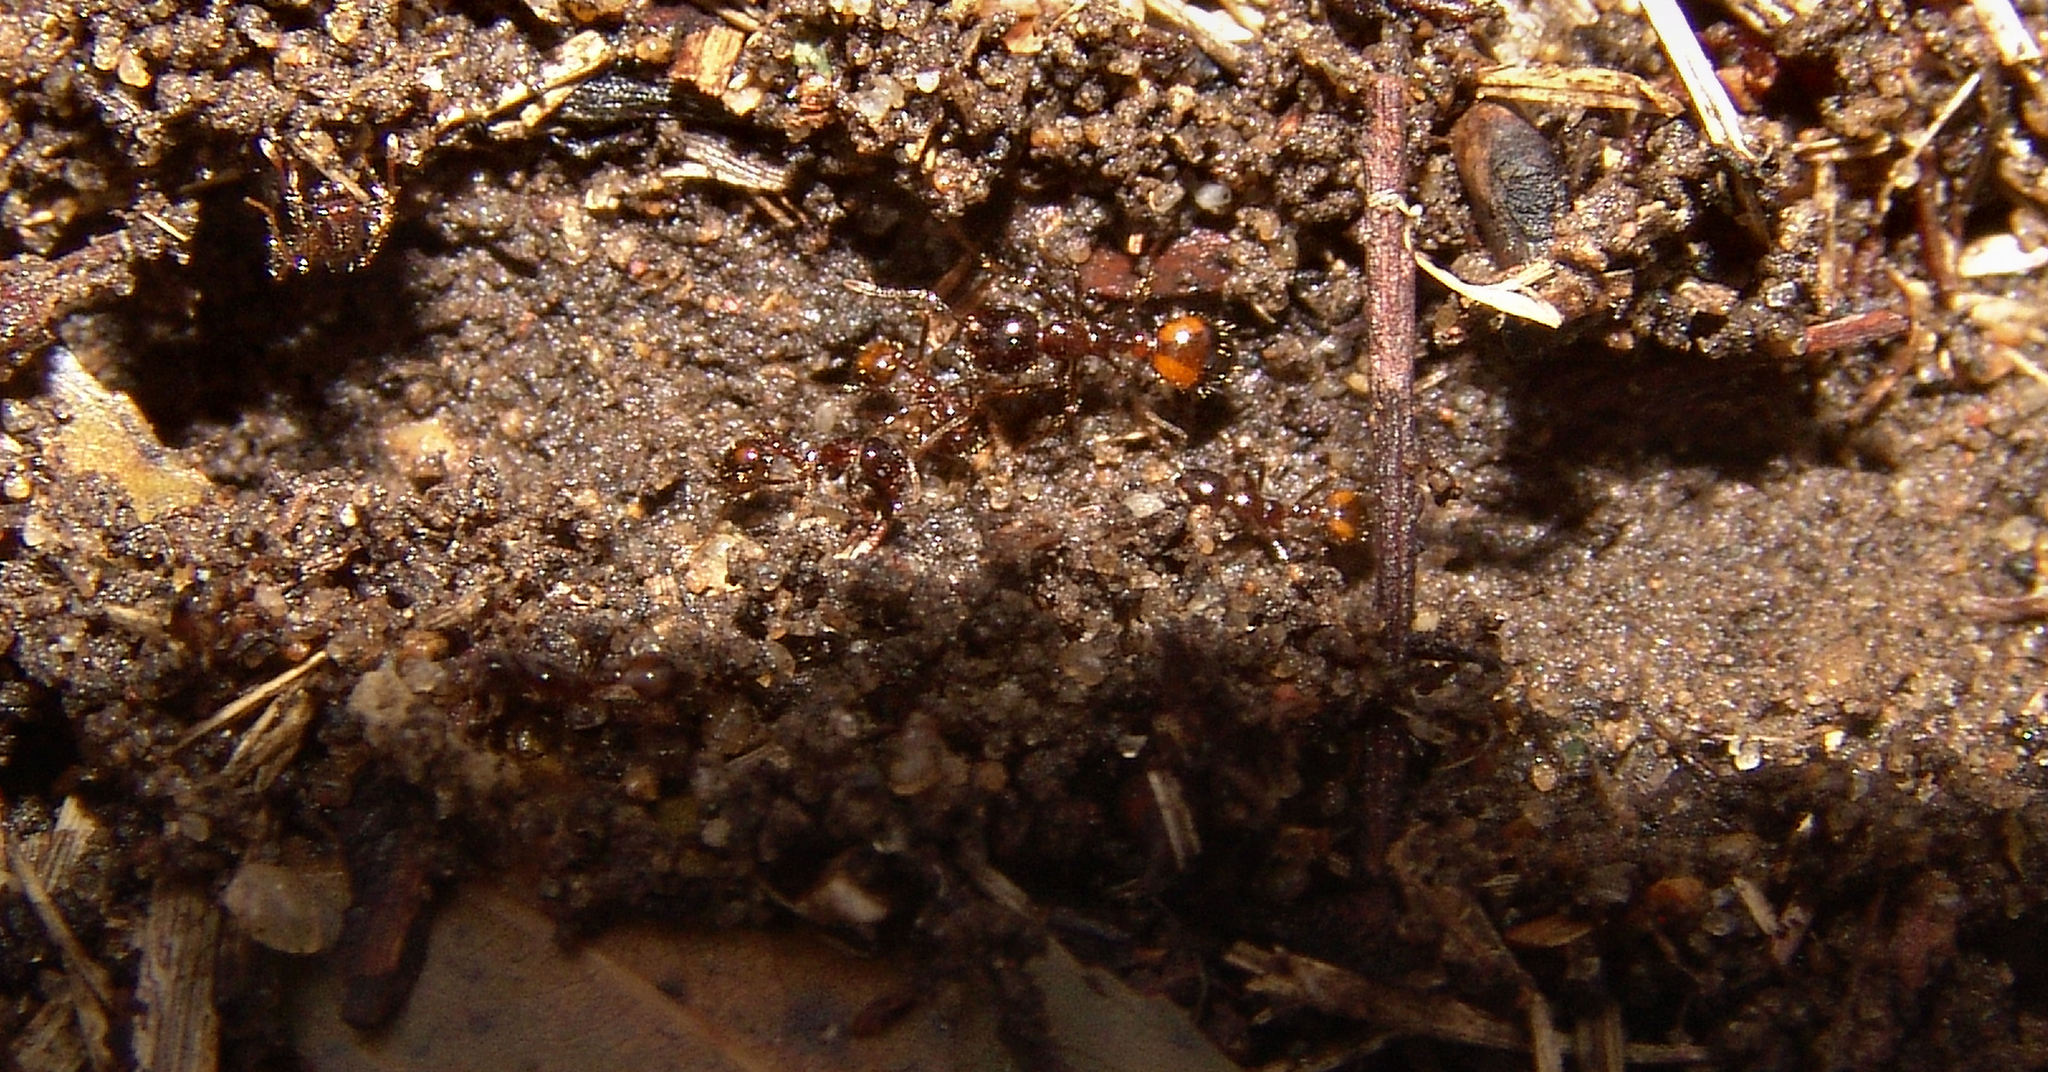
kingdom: Animalia
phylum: Arthropoda
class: Insecta
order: Hymenoptera
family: Formicidae
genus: Solenopsis
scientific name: Solenopsis
